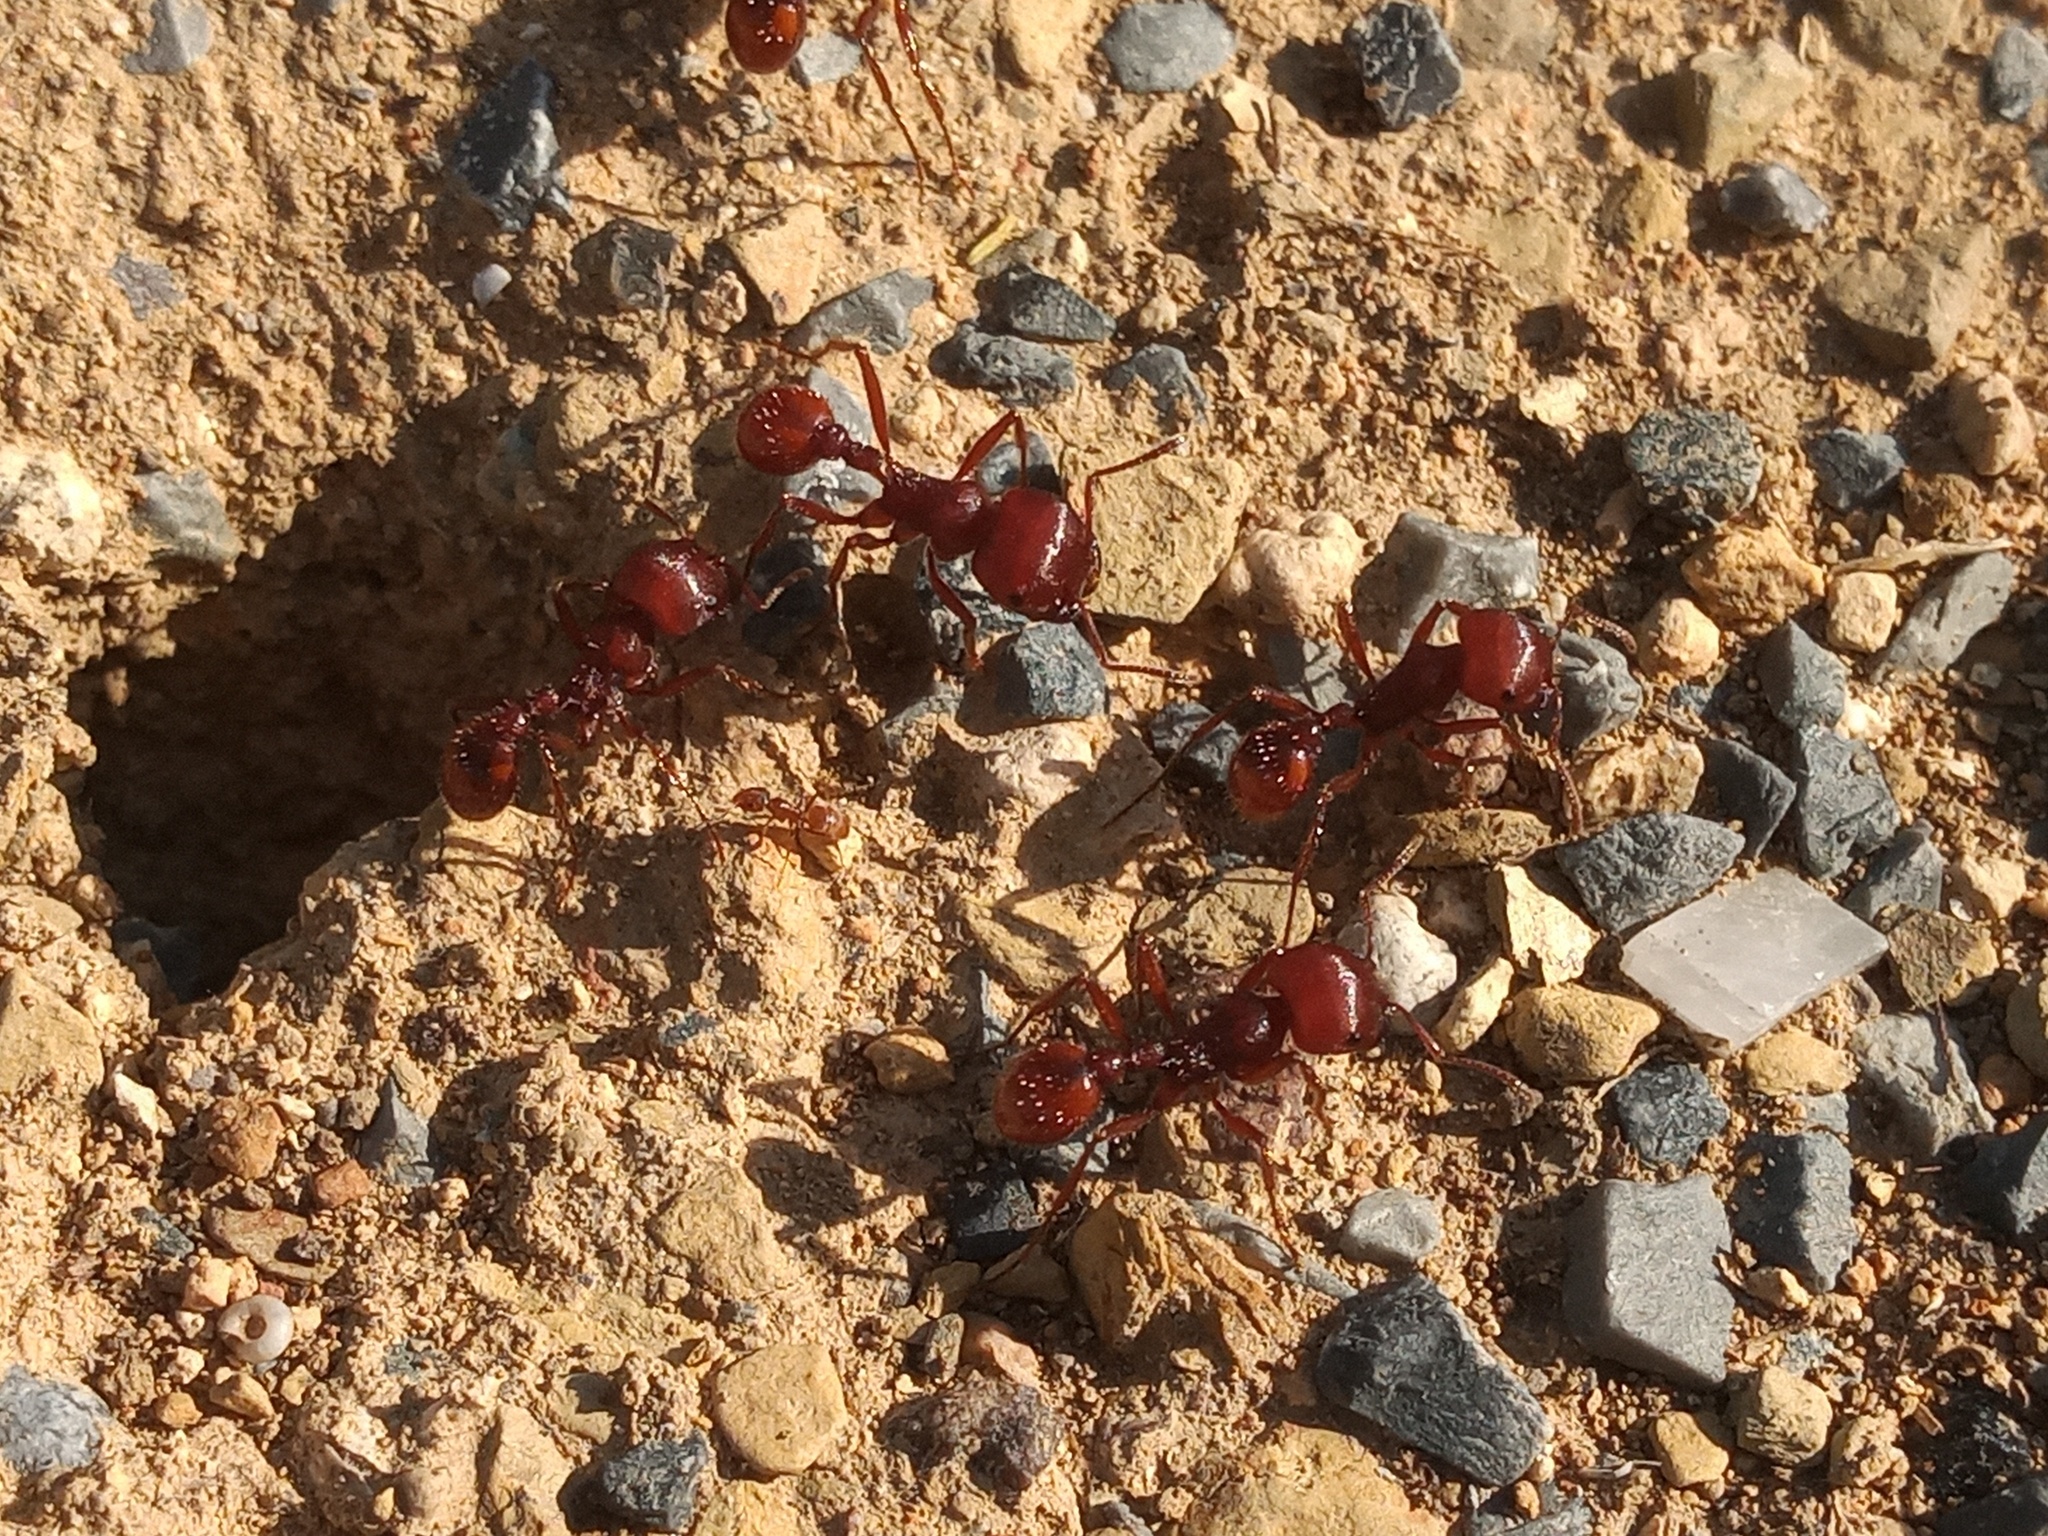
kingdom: Animalia
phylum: Arthropoda
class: Insecta
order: Hymenoptera
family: Formicidae
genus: Pogonomyrmex
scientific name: Pogonomyrmex barbatus
